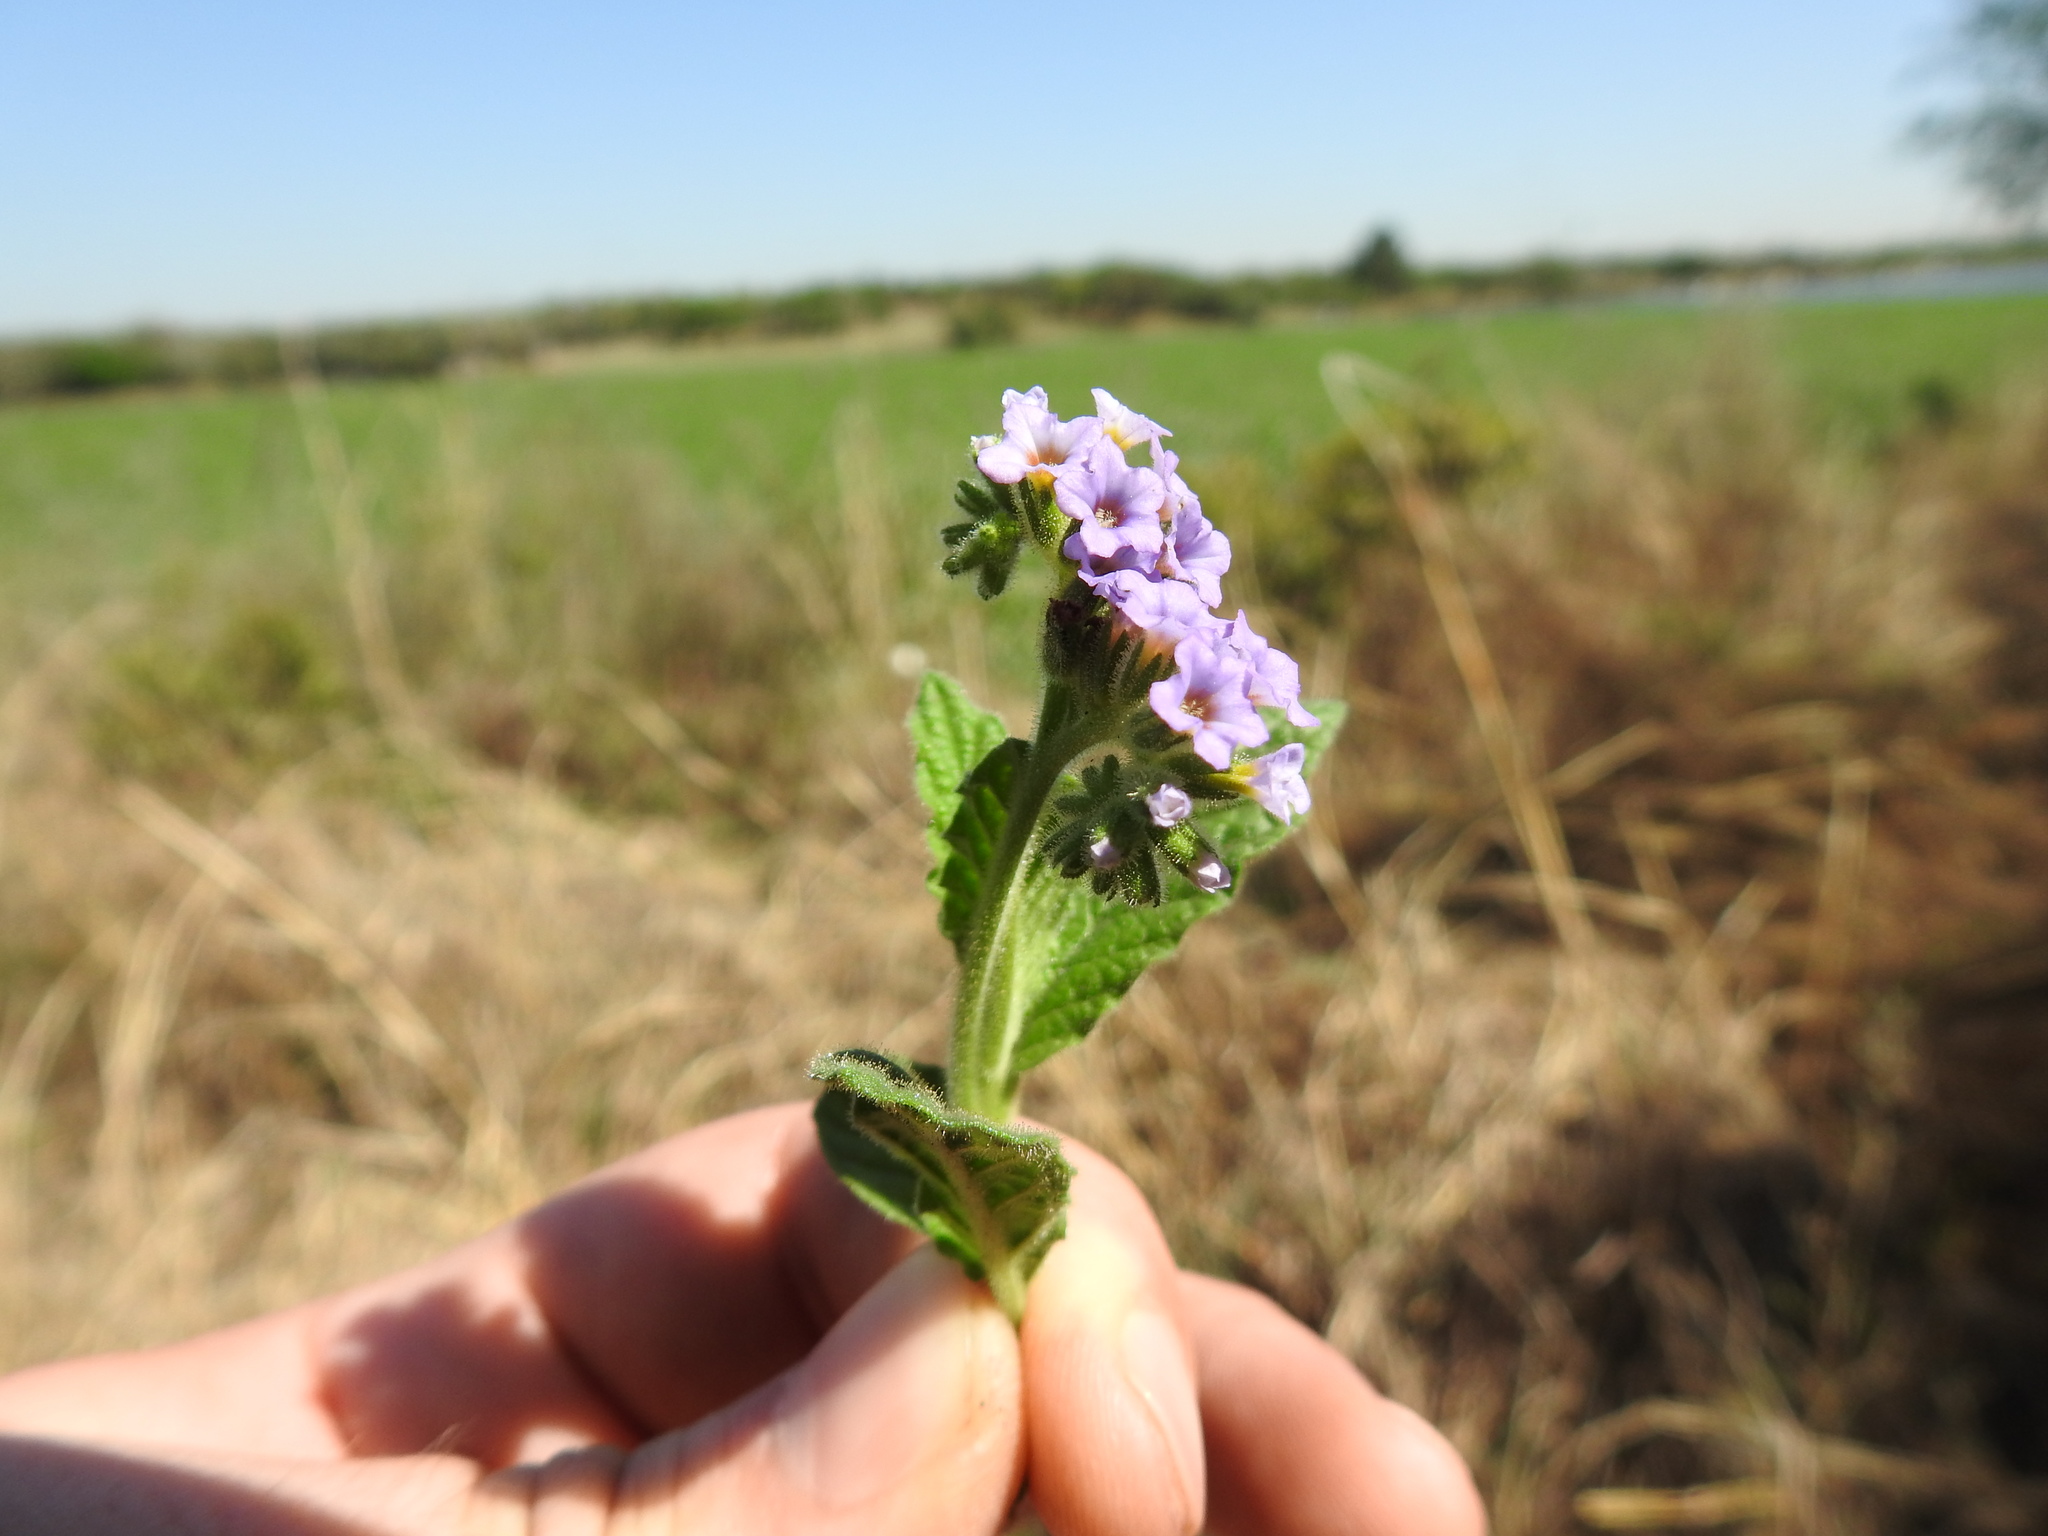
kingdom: Plantae
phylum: Tracheophyta
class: Magnoliopsida
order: Boraginales
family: Heliotropiaceae
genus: Heliotropium
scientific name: Heliotropium amplexicaule
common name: Clasping heliotrope
